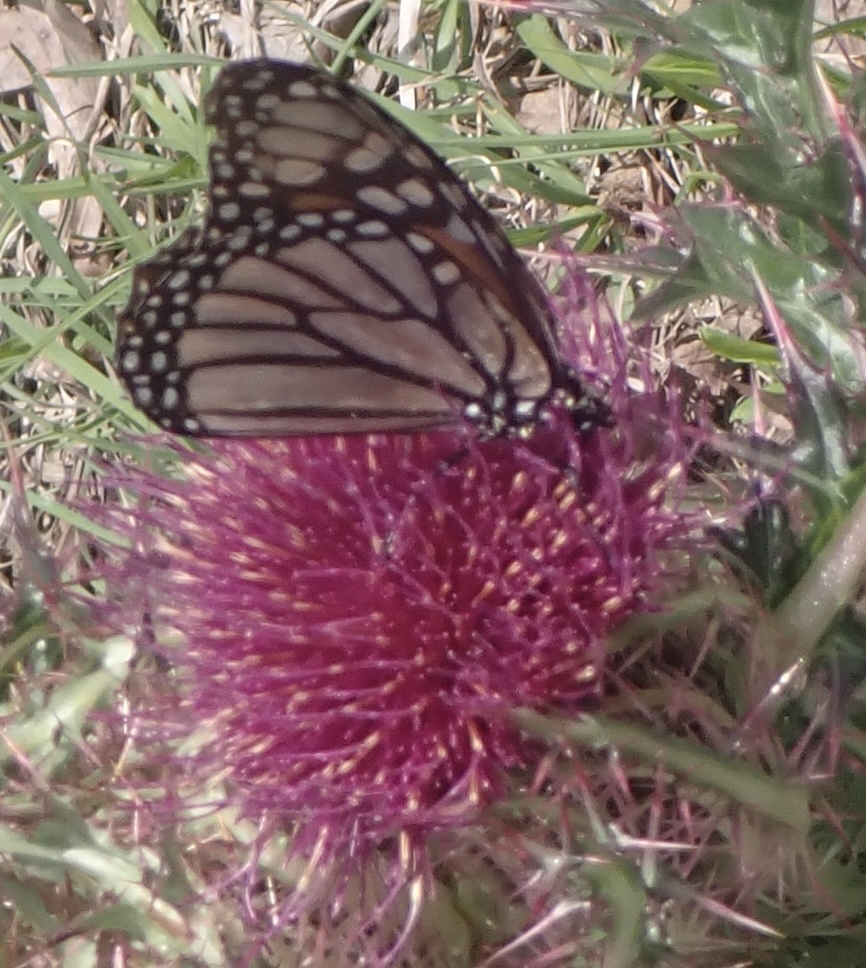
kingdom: Animalia
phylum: Arthropoda
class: Insecta
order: Lepidoptera
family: Nymphalidae
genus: Danaus
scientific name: Danaus plexippus
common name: Monarch
